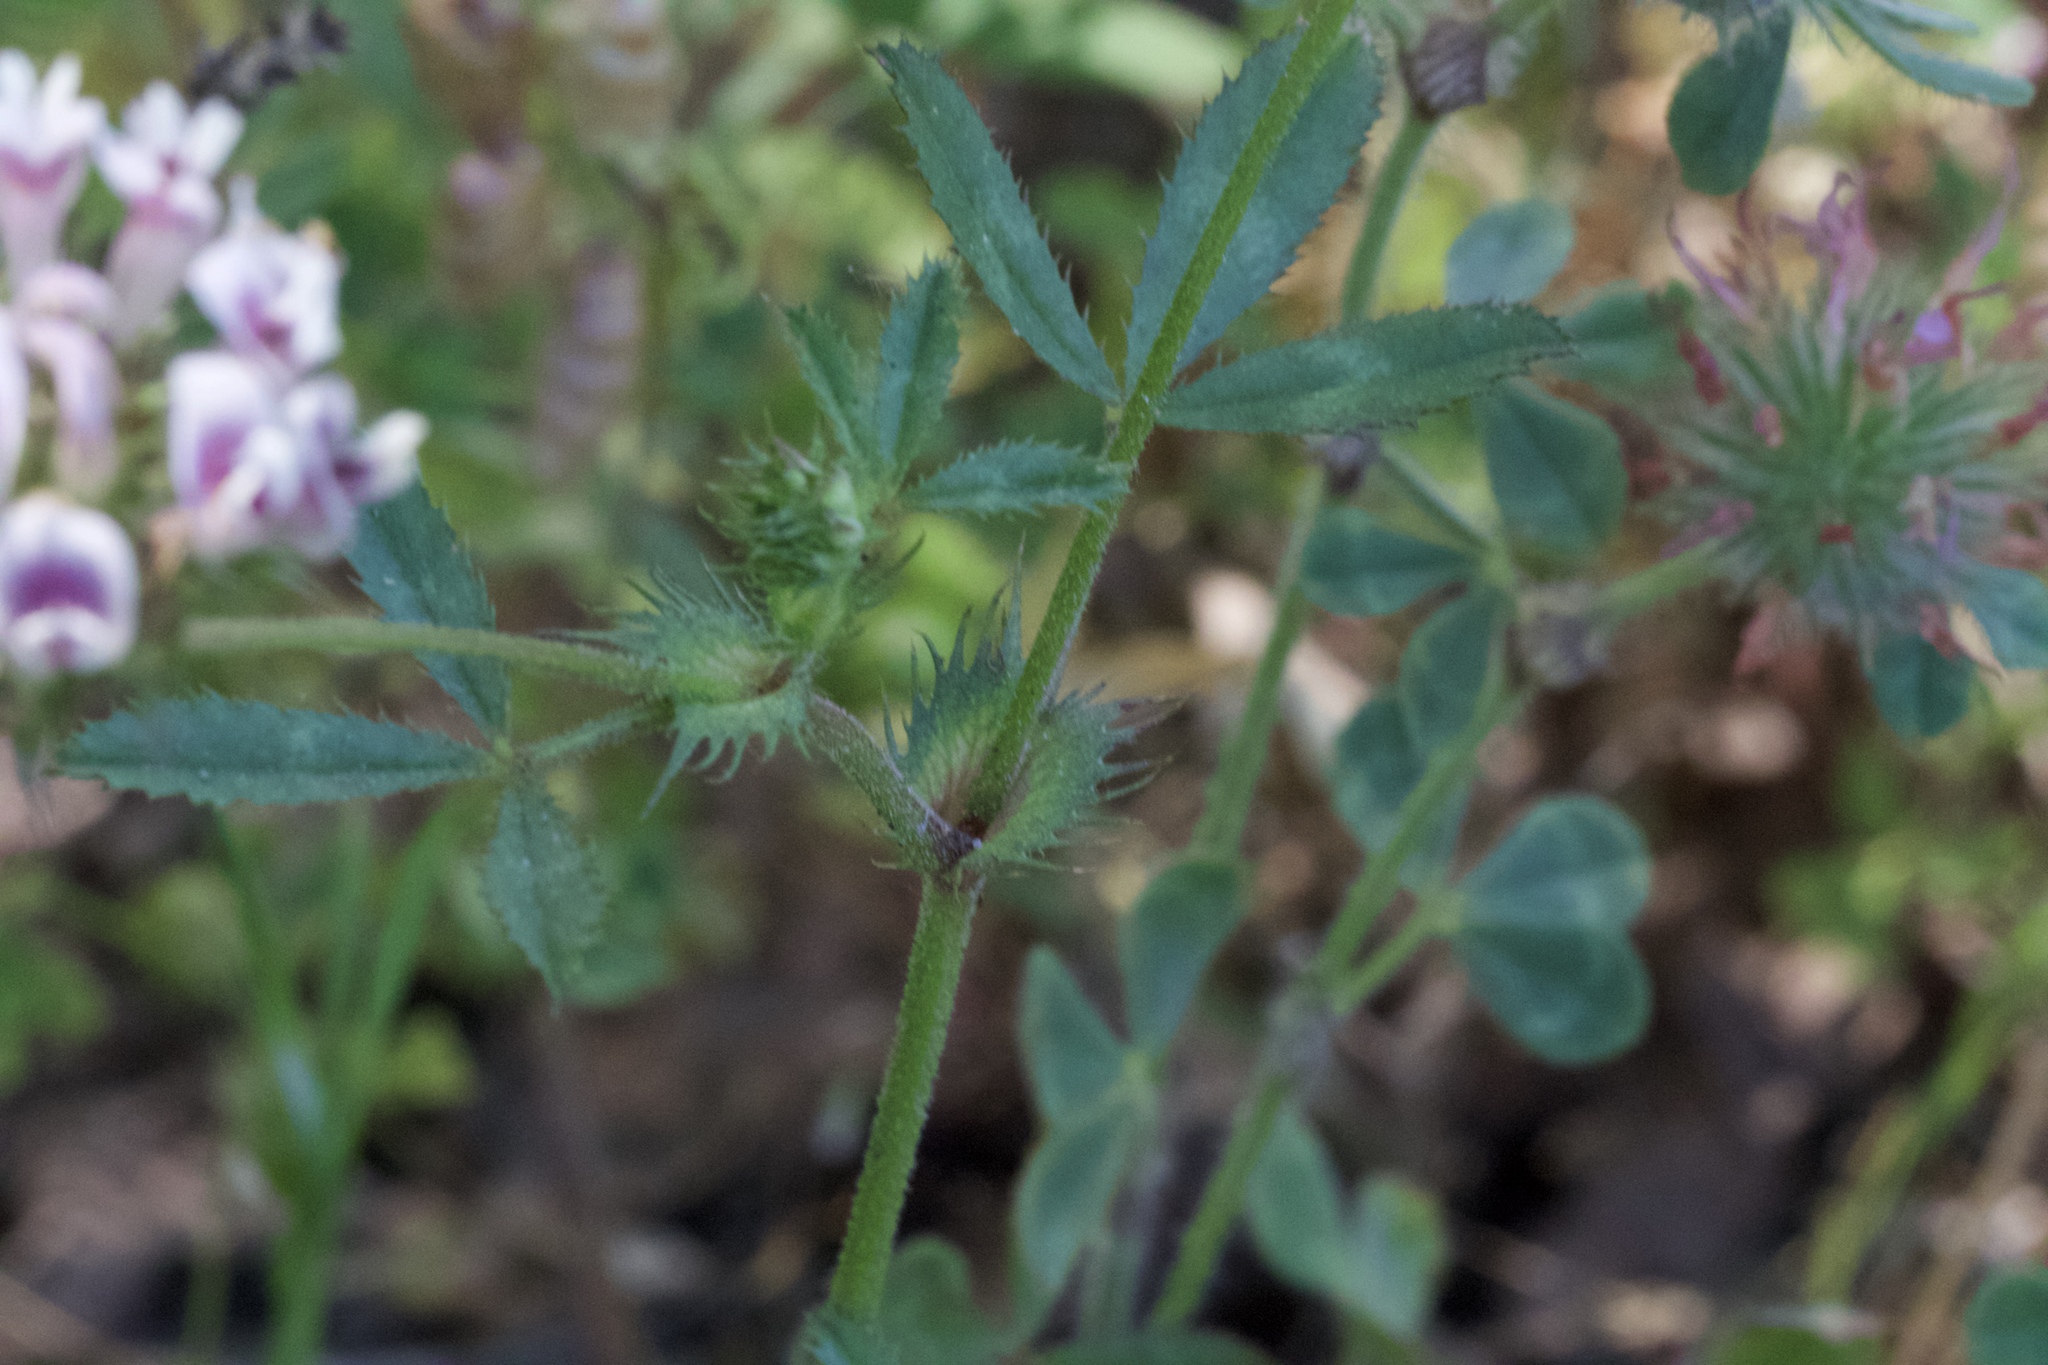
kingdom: Plantae
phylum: Tracheophyta
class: Magnoliopsida
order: Fabales
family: Fabaceae
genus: Trifolium
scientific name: Trifolium obtusiflorum
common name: Clammy clover
